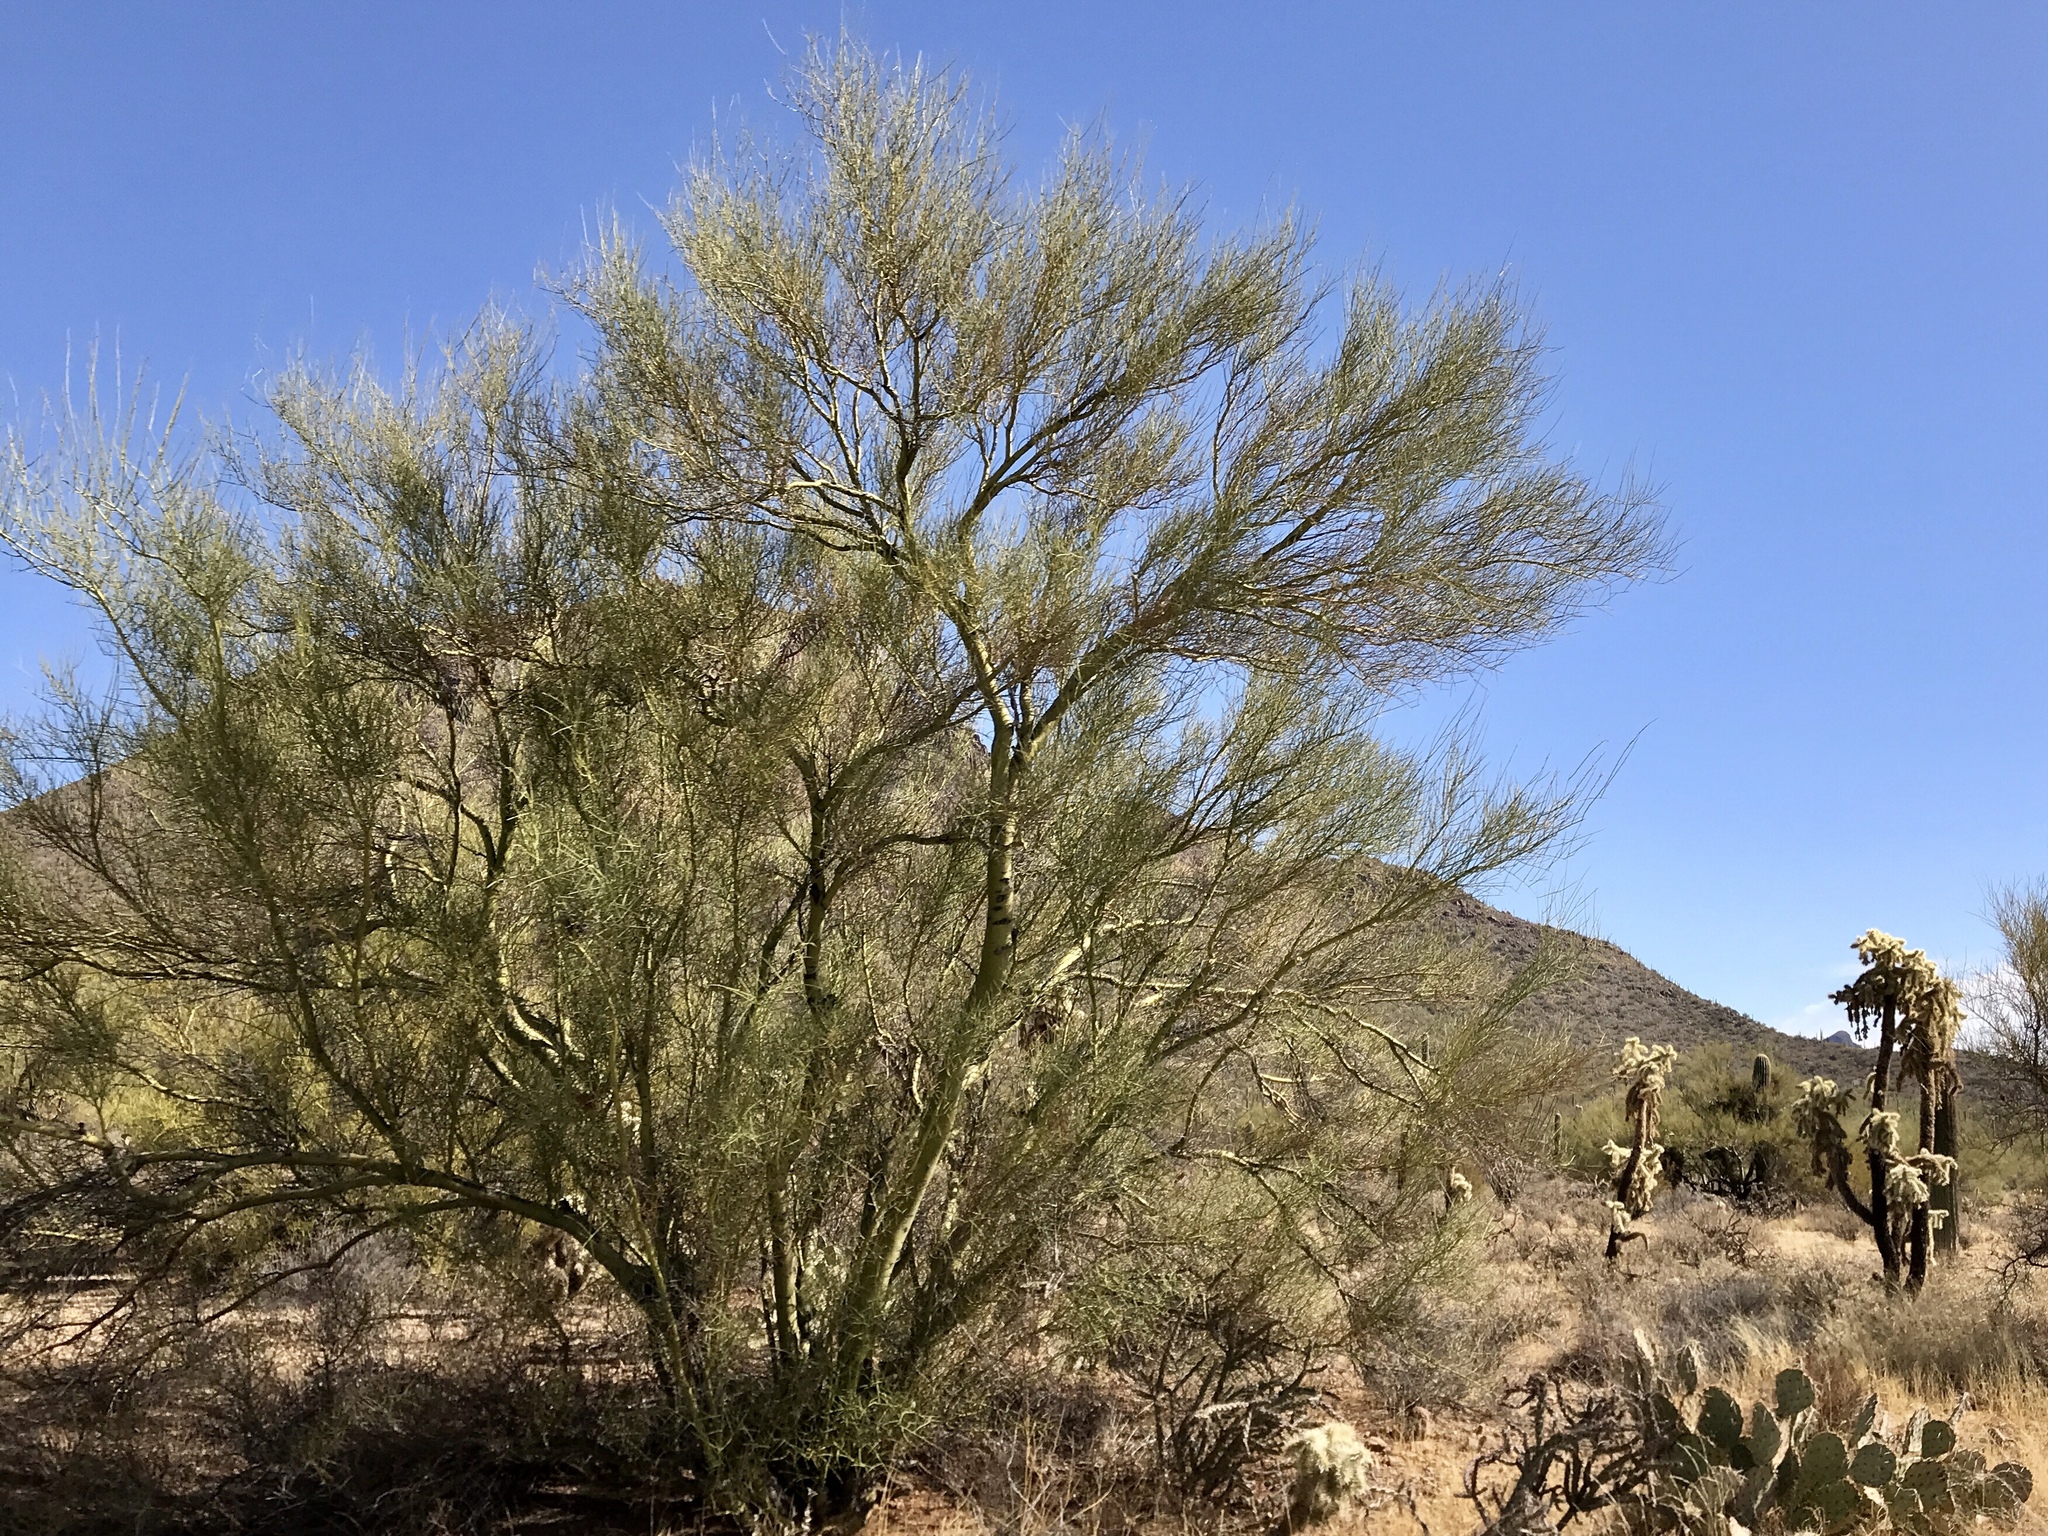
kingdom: Plantae
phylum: Tracheophyta
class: Magnoliopsida
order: Fabales
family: Fabaceae
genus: Parkinsonia
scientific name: Parkinsonia microphylla
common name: Yellow paloverde
